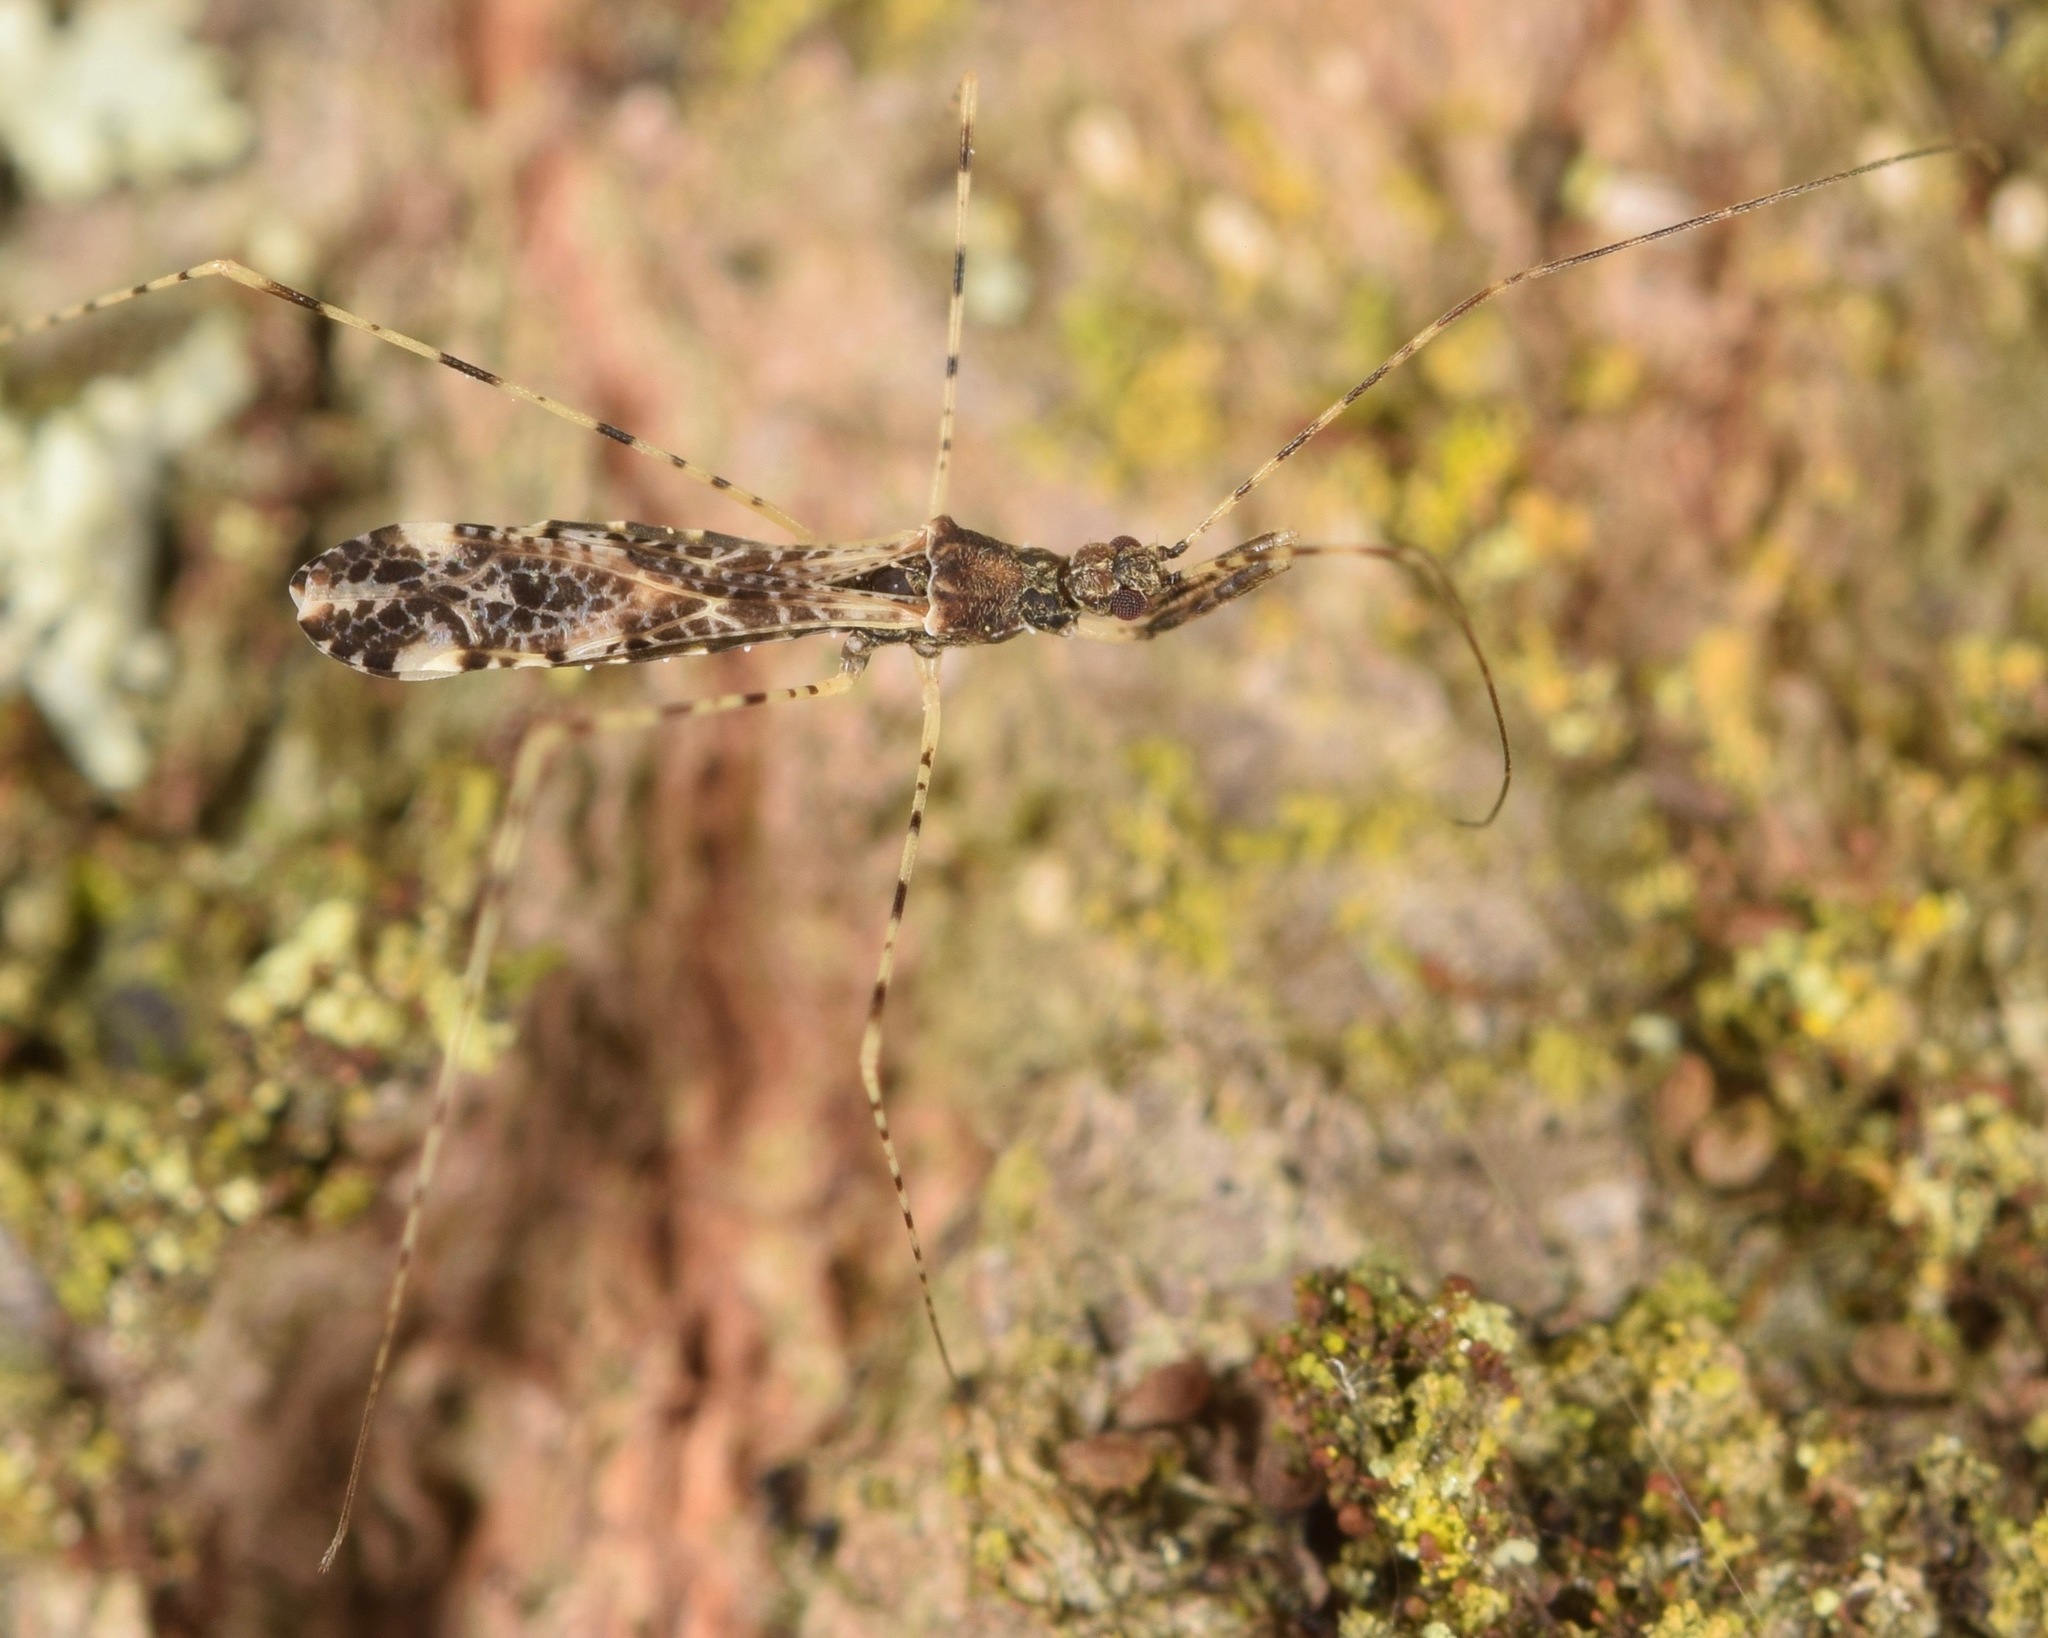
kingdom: Animalia
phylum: Arthropoda
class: Insecta
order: Hemiptera
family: Reduviidae
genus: Empicoris
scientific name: Empicoris errabundus
